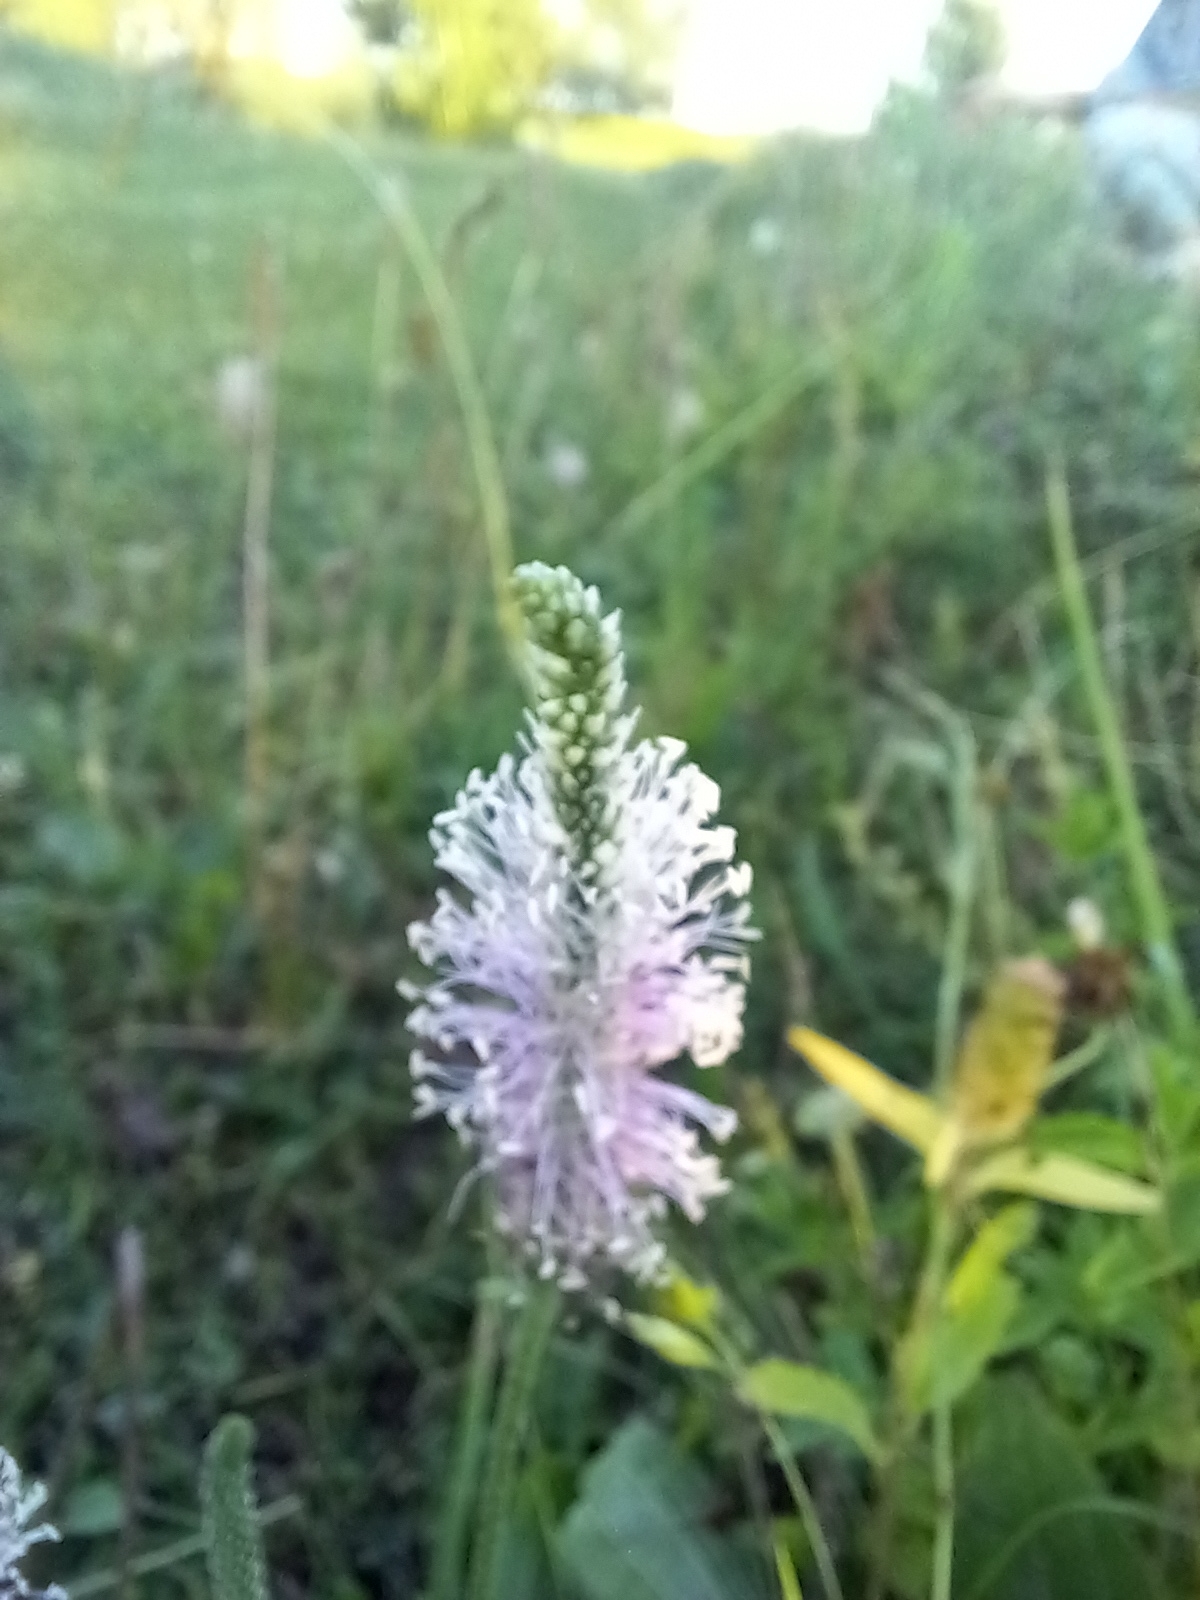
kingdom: Plantae
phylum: Tracheophyta
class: Magnoliopsida
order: Lamiales
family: Plantaginaceae
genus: Plantago
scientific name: Plantago media
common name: Hoary plantain
